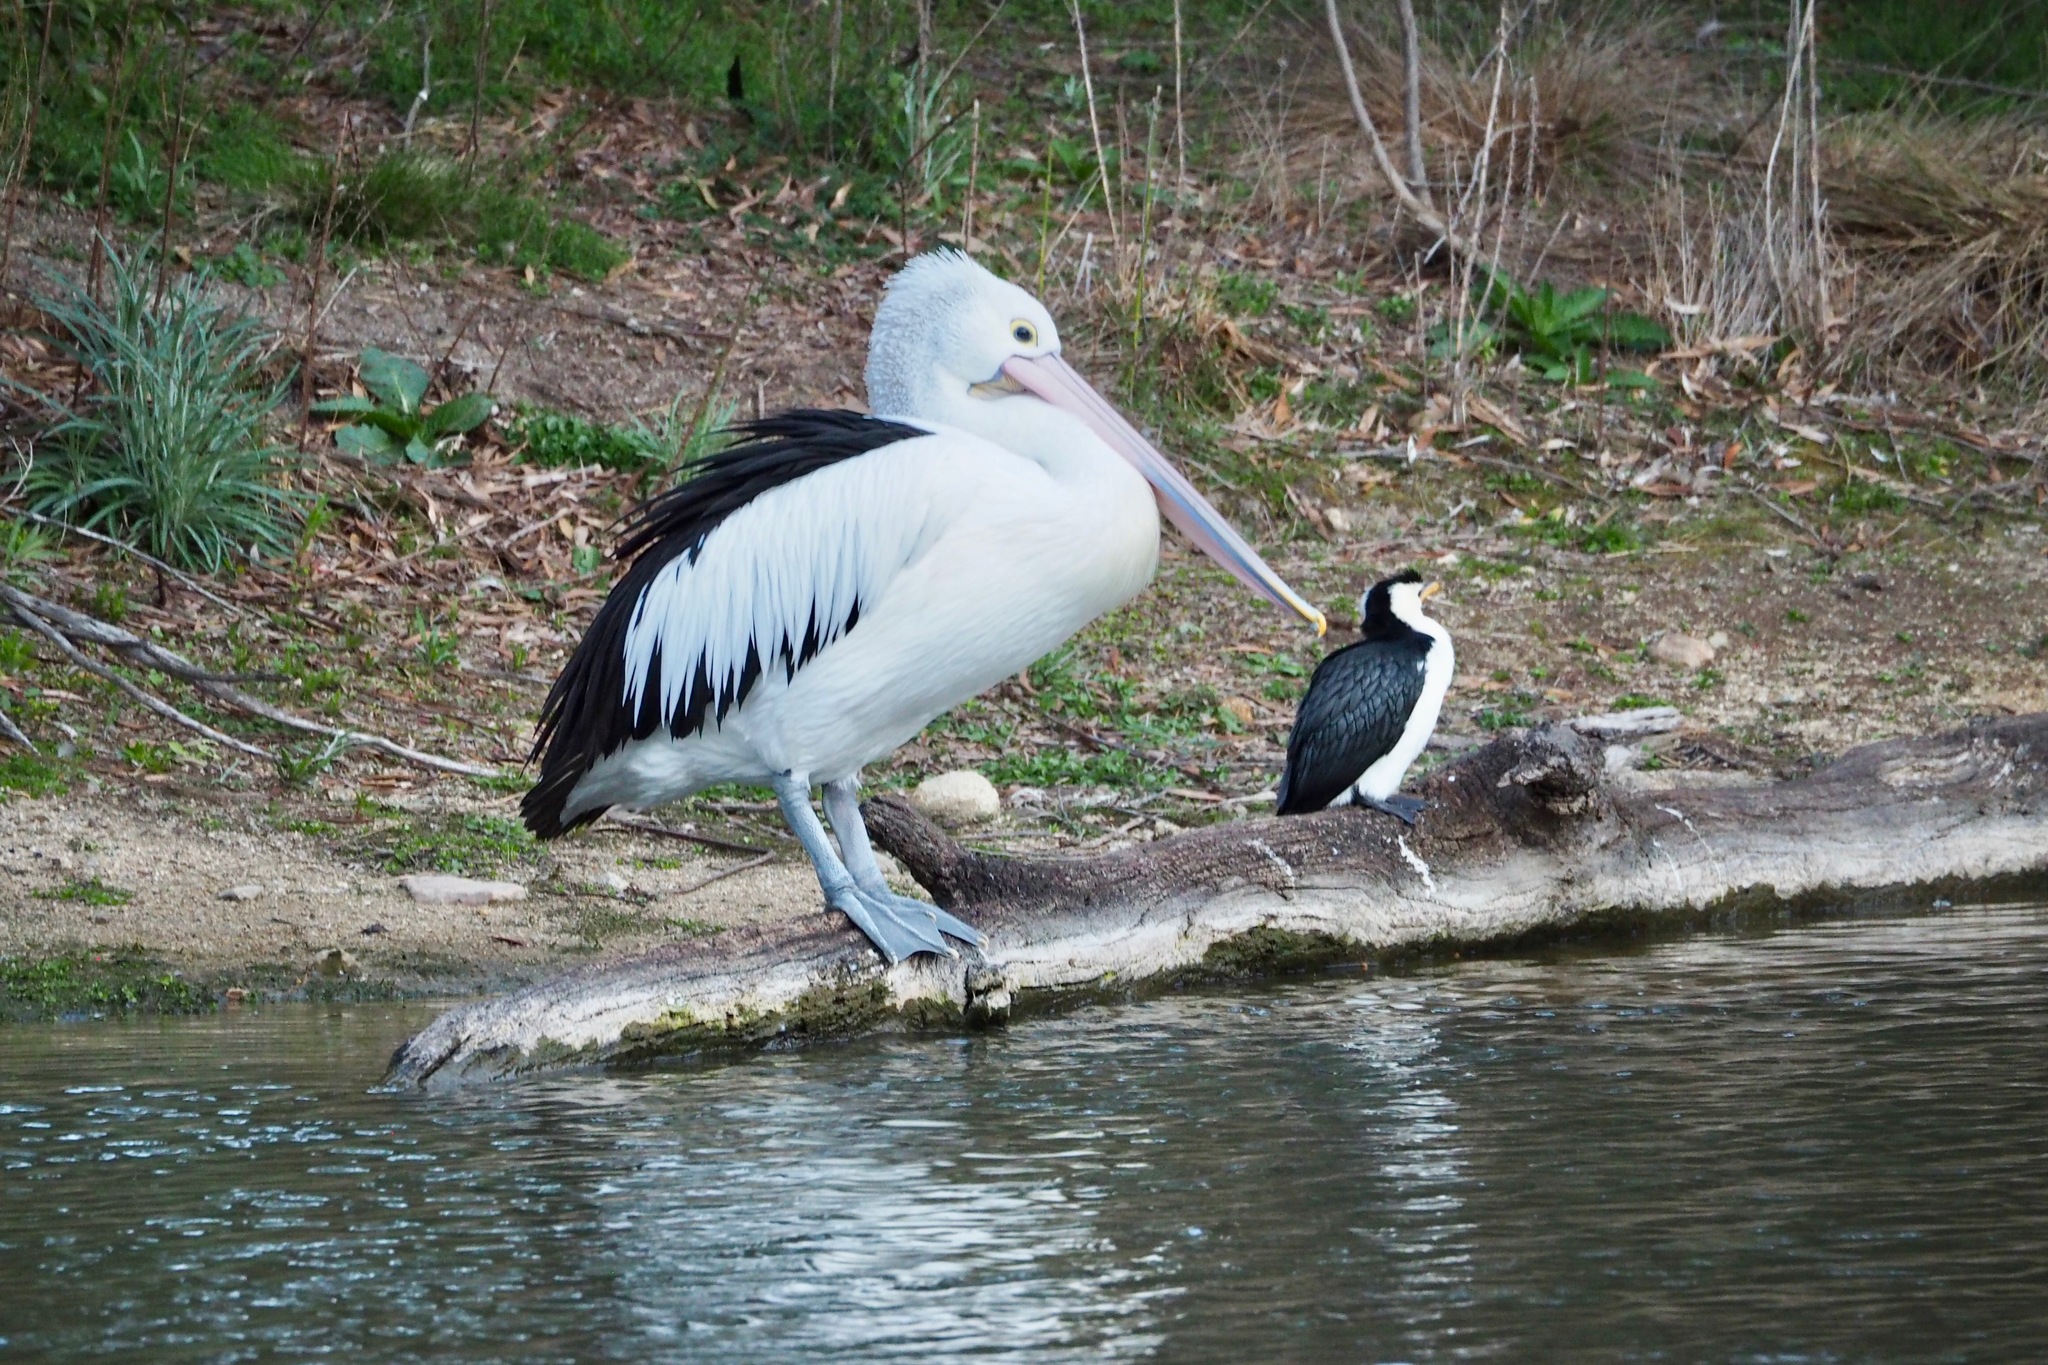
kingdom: Animalia
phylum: Chordata
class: Aves
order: Pelecaniformes
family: Pelecanidae
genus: Pelecanus
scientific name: Pelecanus conspicillatus
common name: Australian pelican
